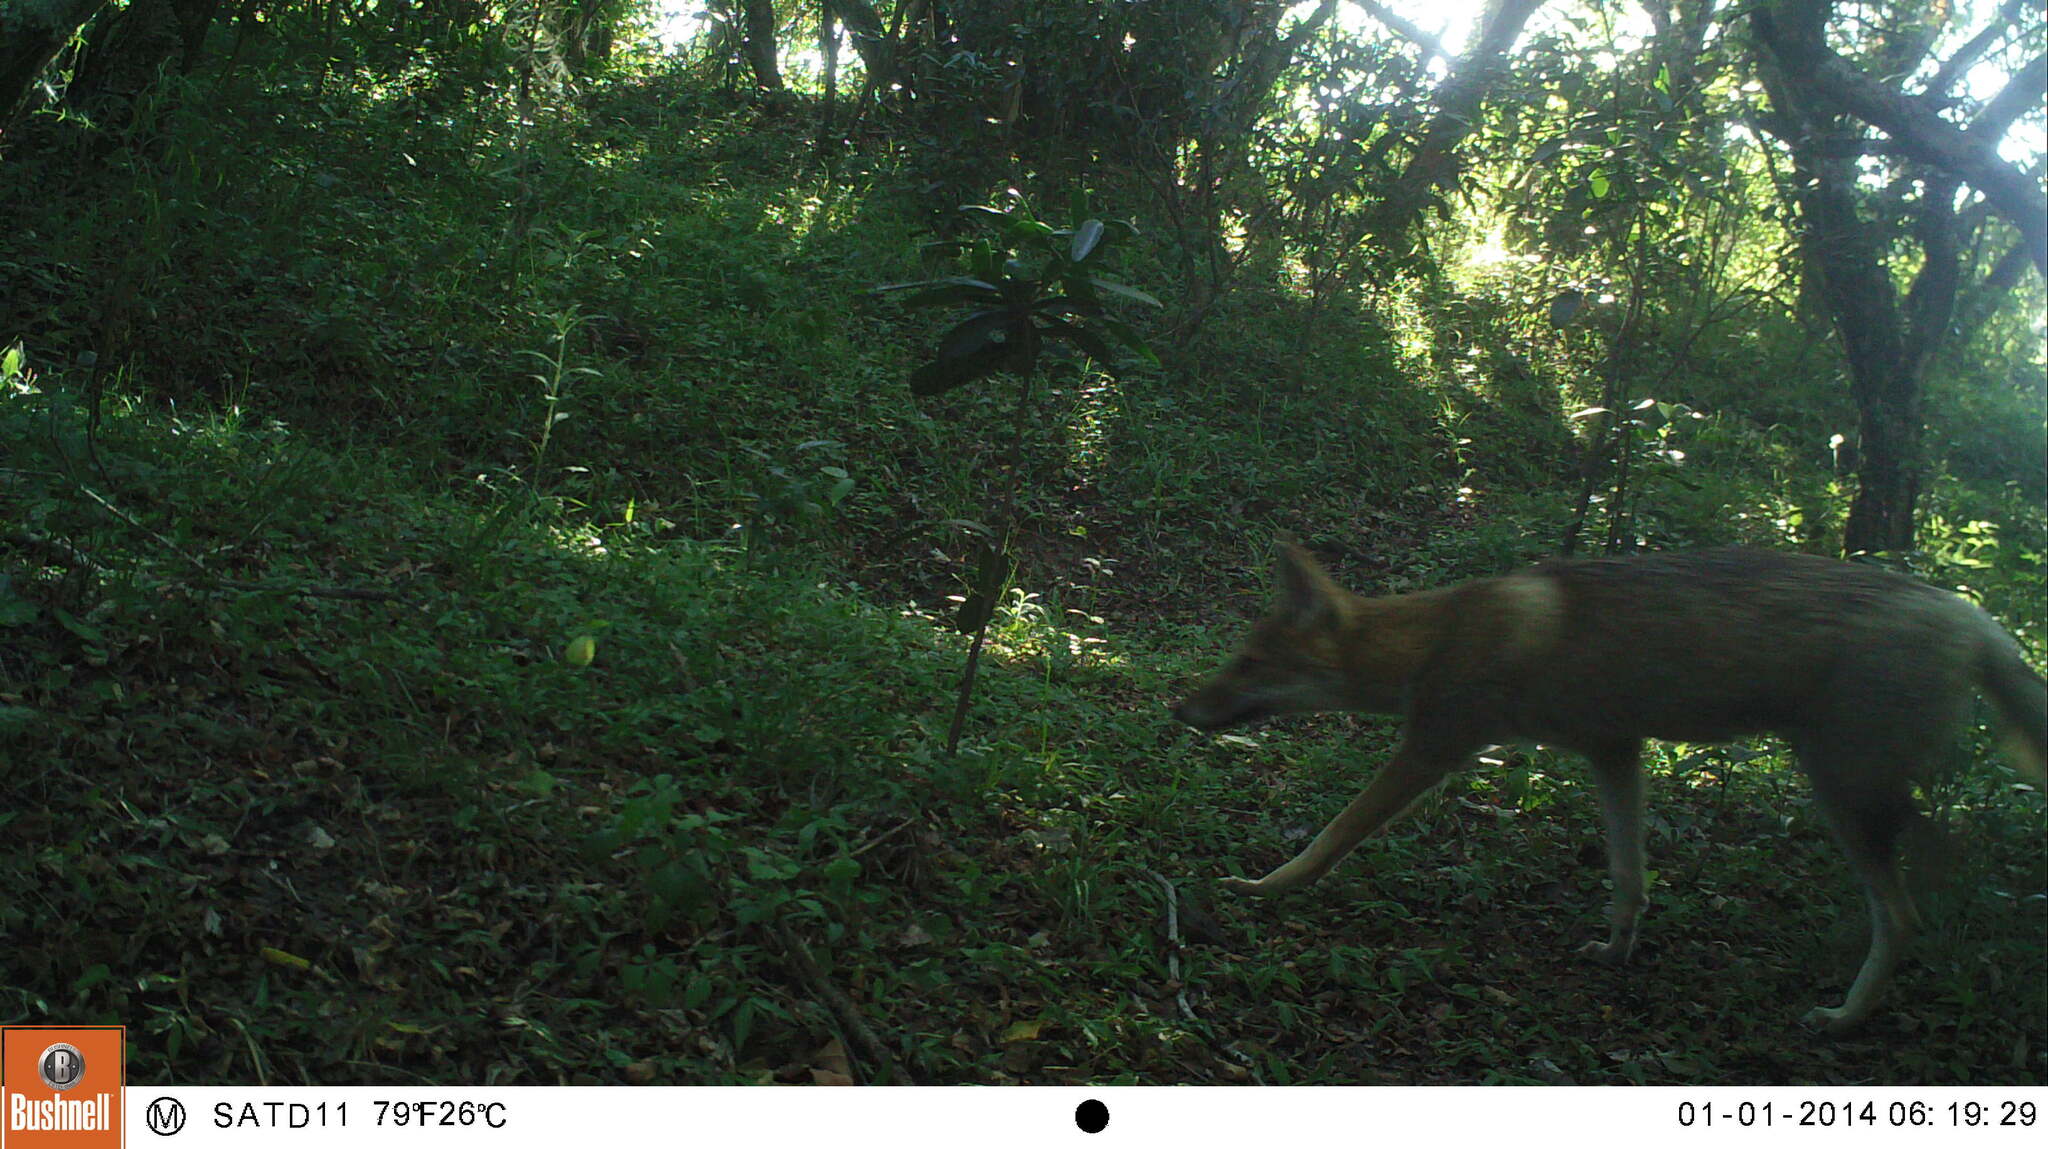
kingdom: Animalia
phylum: Chordata
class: Mammalia
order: Carnivora
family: Canidae
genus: Lycalopex
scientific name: Lycalopex gymnocercus
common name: Pampas fox
